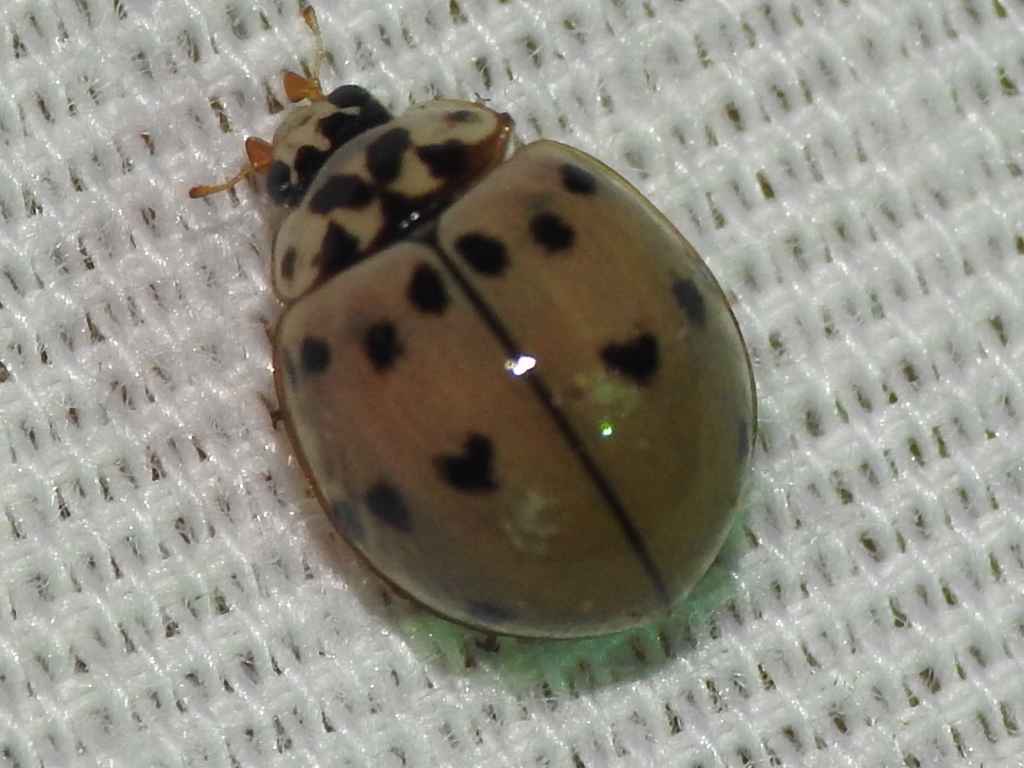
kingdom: Animalia
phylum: Arthropoda
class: Insecta
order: Coleoptera
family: Coccinellidae
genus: Olla
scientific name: Olla v-nigrum
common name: Ashy gray lady beetle
